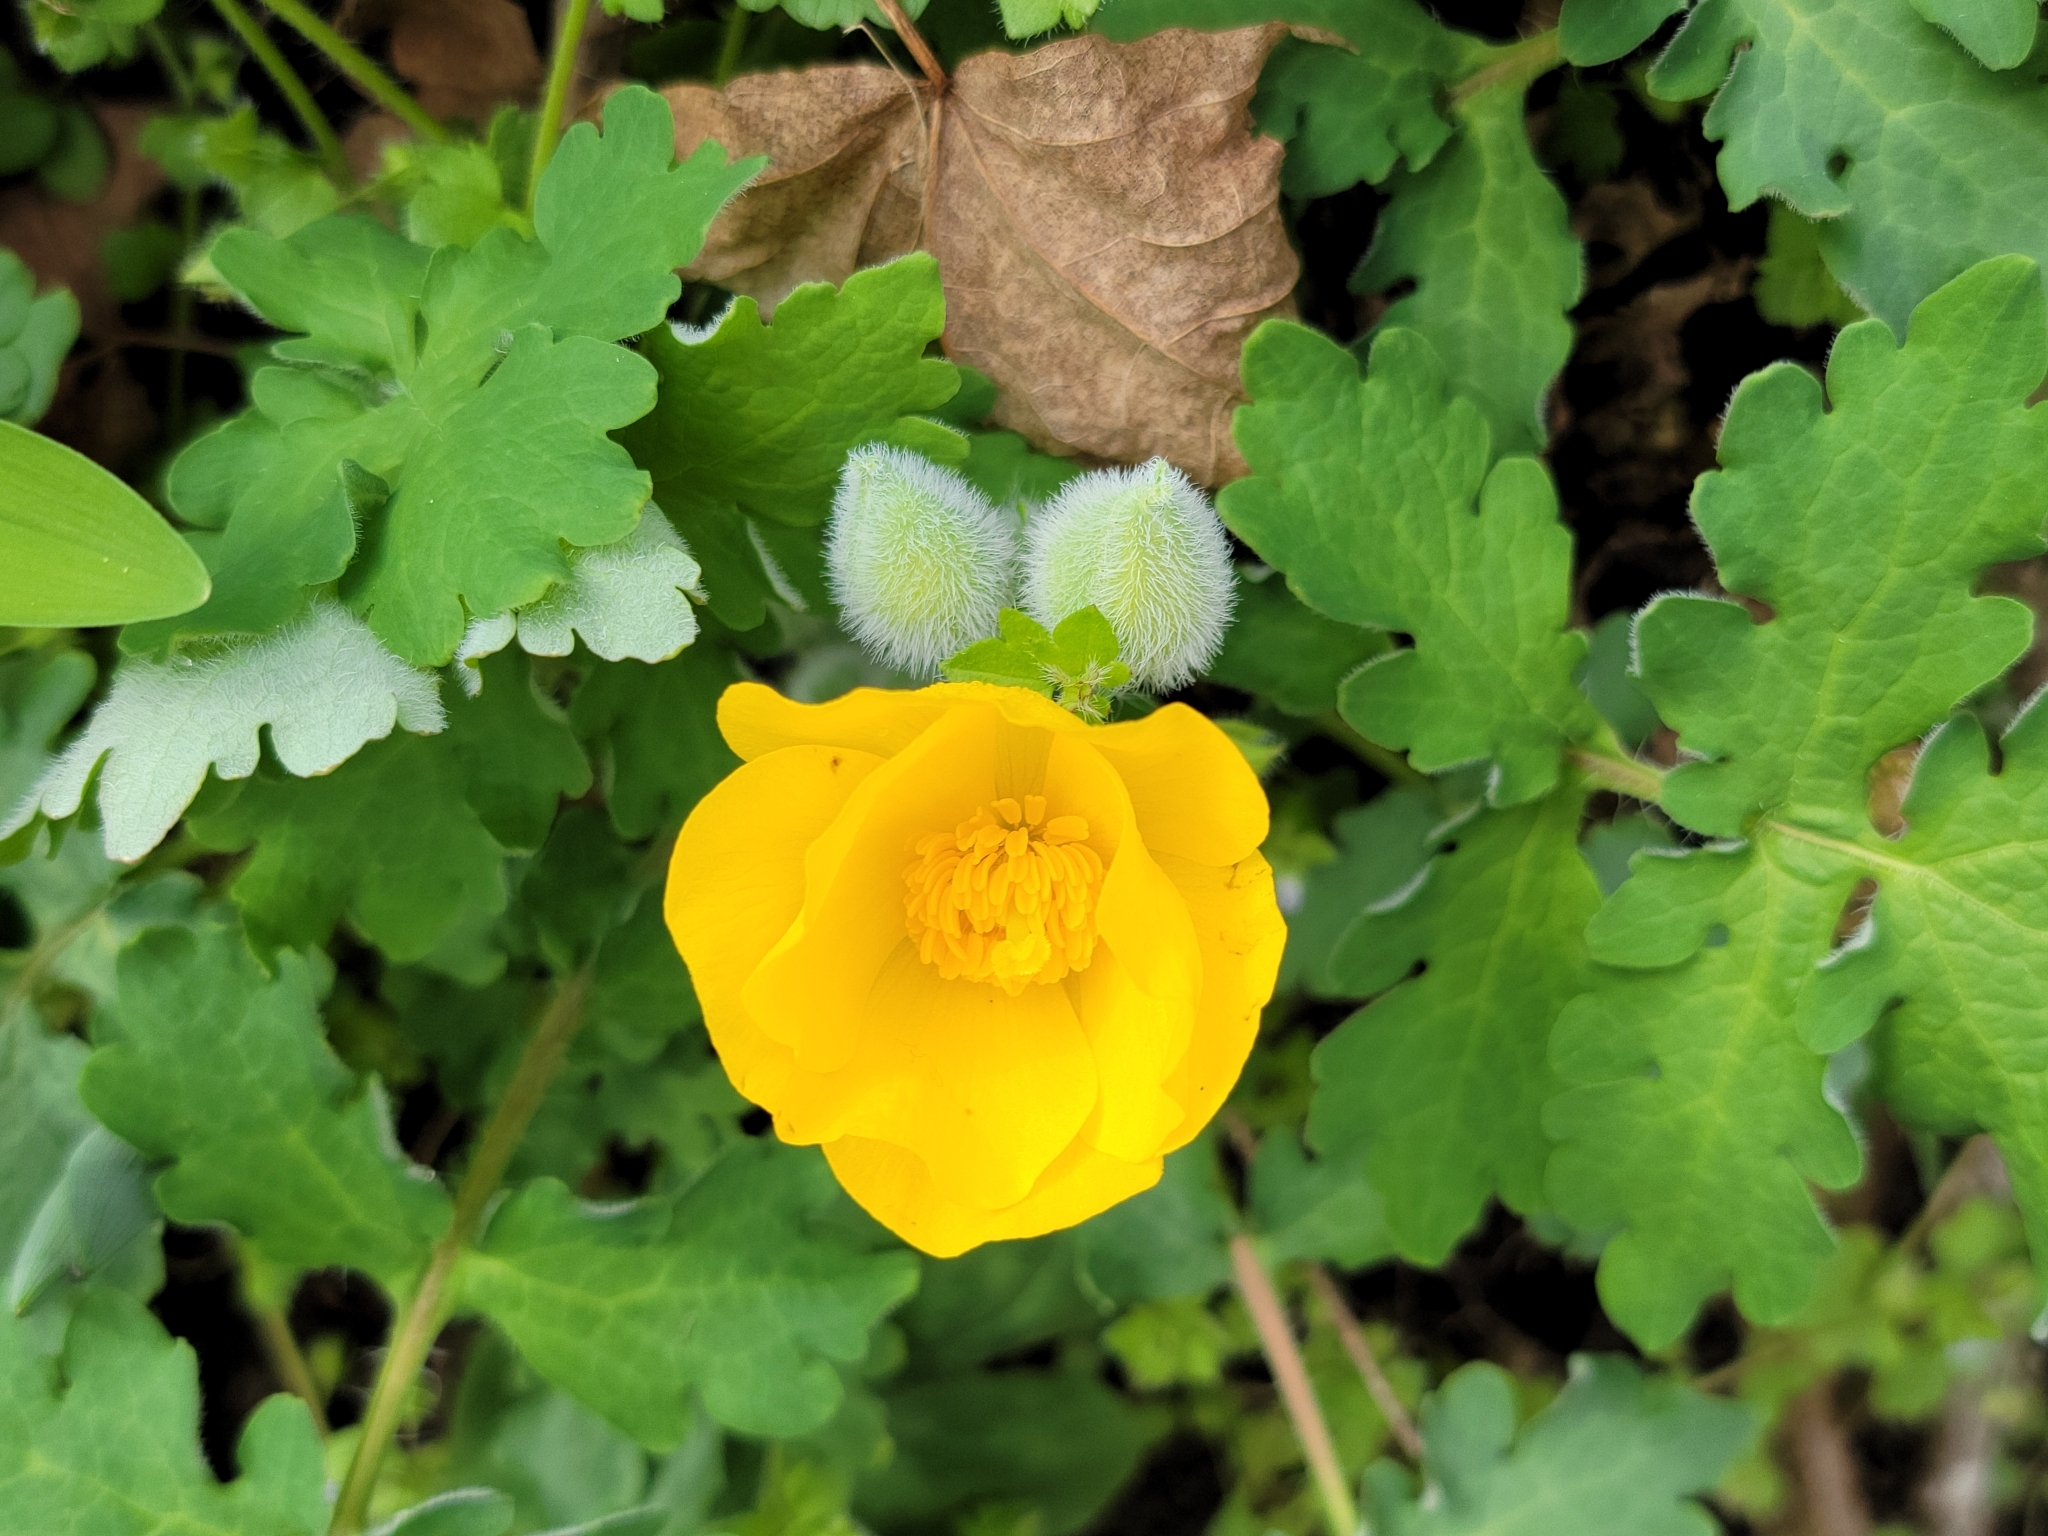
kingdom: Plantae
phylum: Tracheophyta
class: Magnoliopsida
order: Ranunculales
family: Papaveraceae
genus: Stylophorum
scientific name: Stylophorum diphyllum
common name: Celandine poppy
